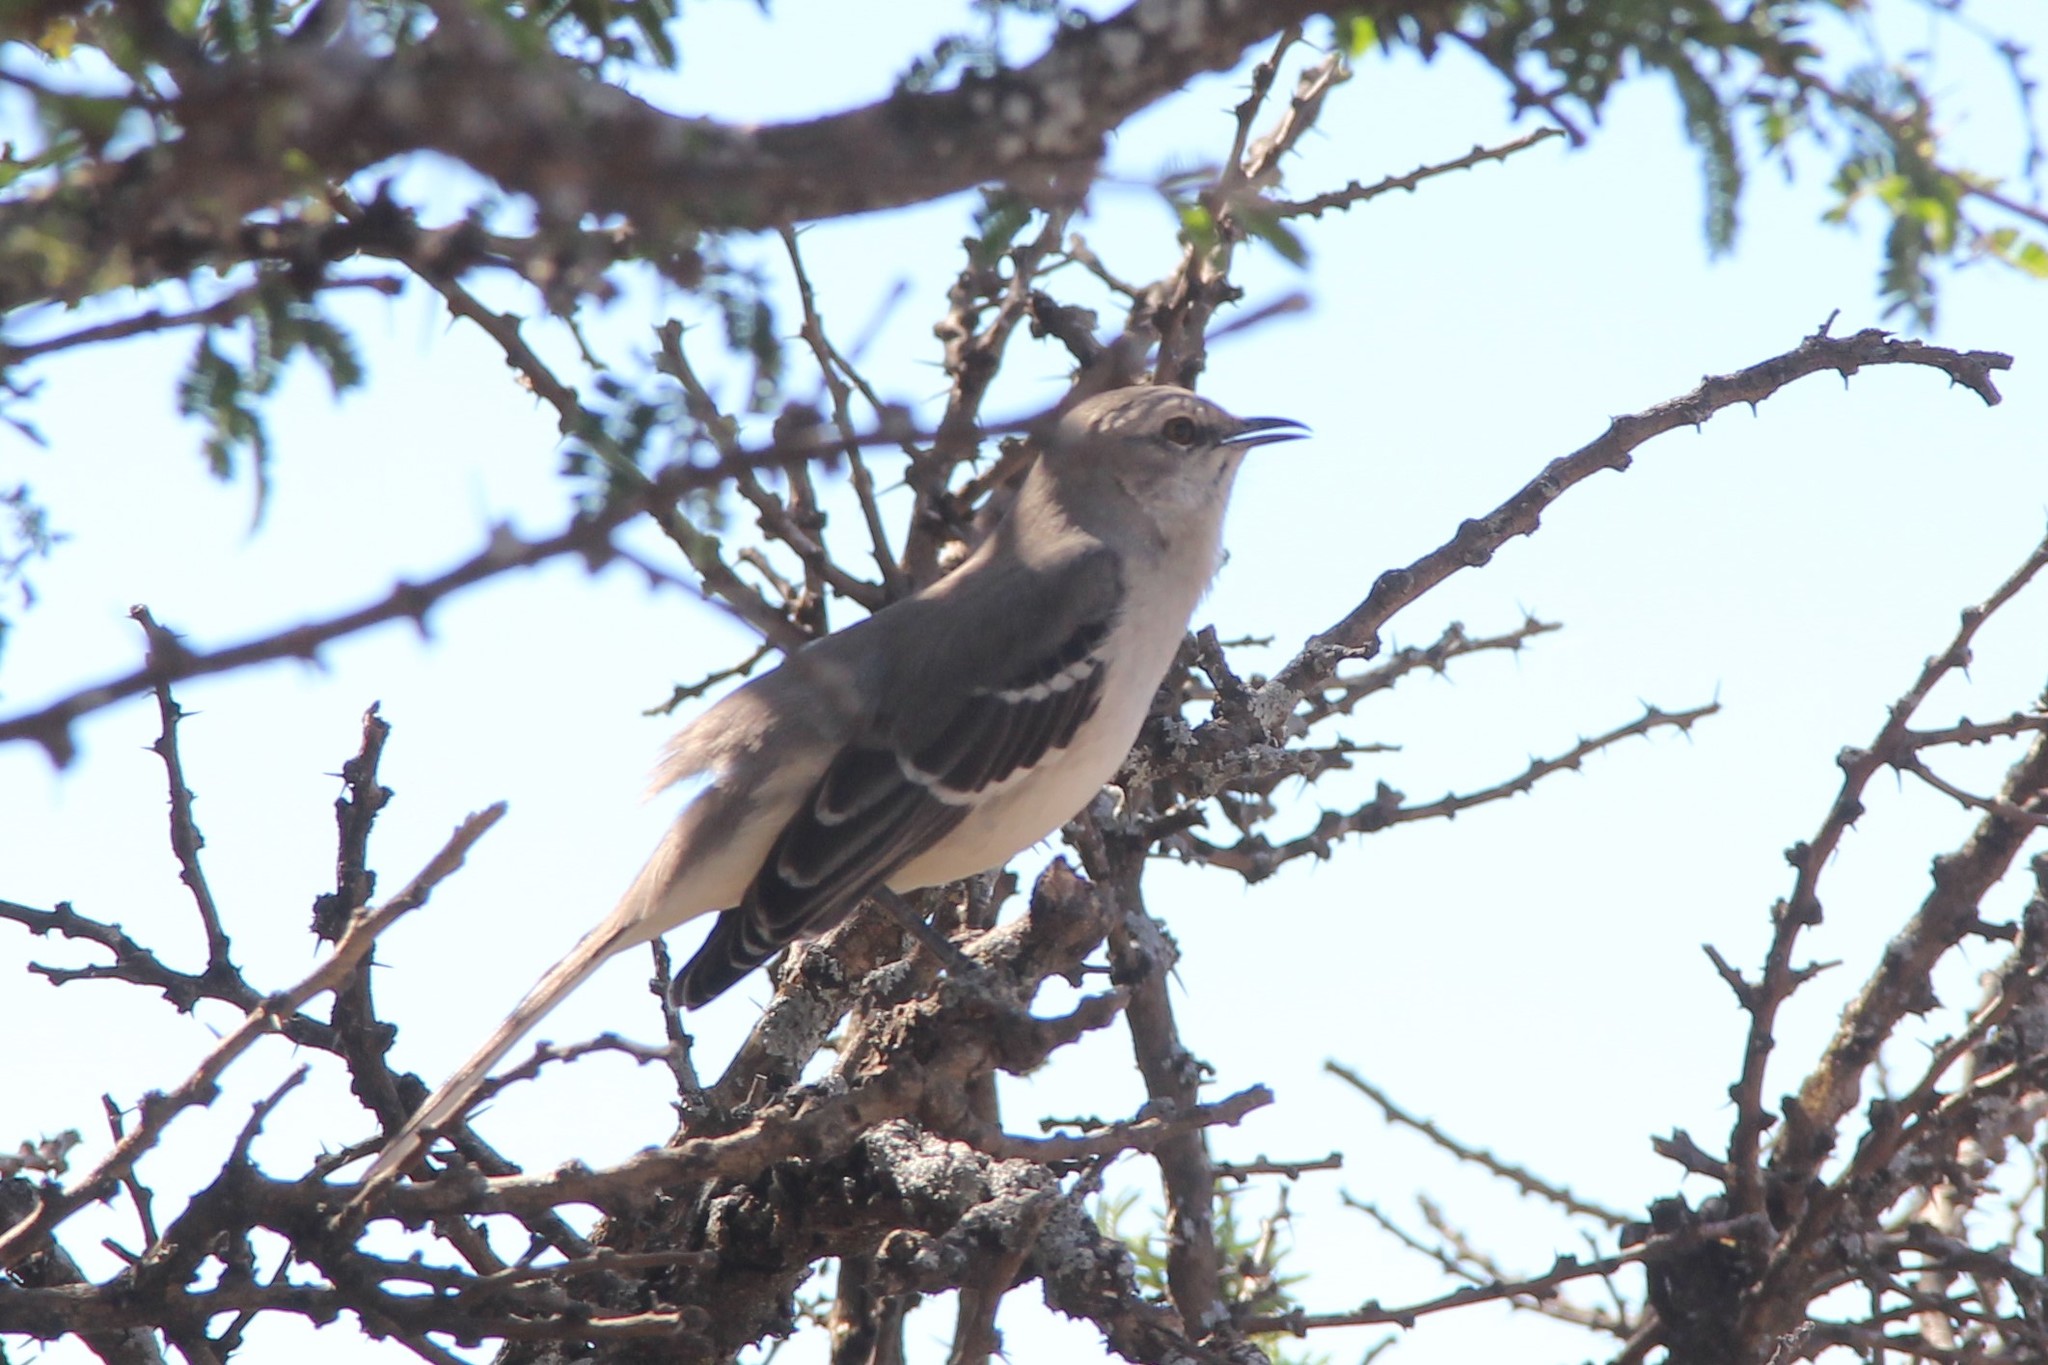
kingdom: Animalia
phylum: Chordata
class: Aves
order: Passeriformes
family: Mimidae
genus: Mimus
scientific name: Mimus polyglottos
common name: Northern mockingbird
